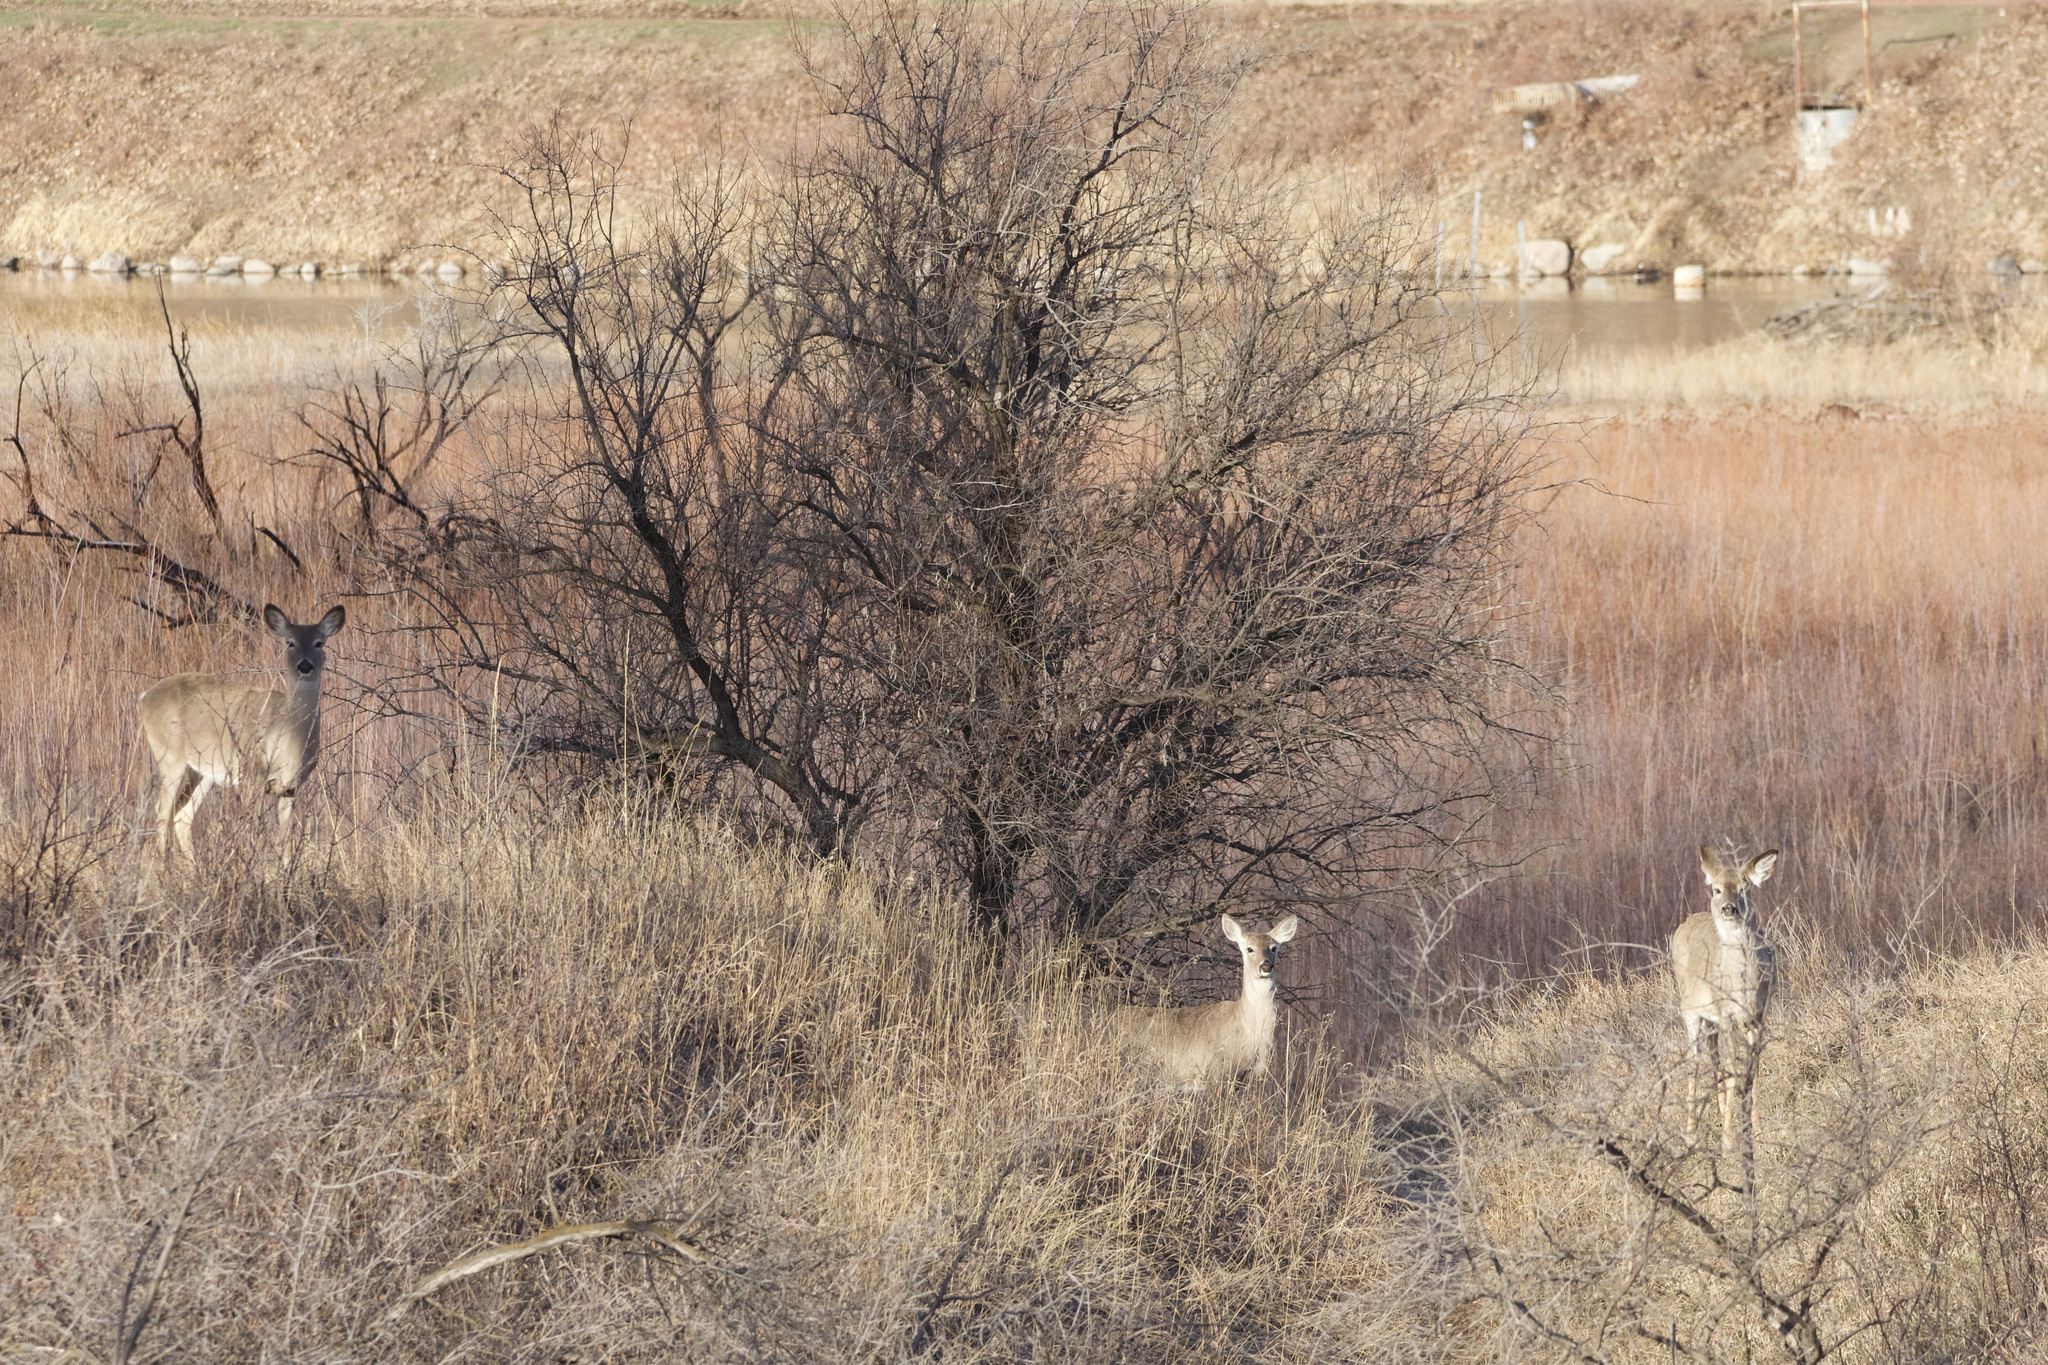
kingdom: Animalia
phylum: Chordata
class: Mammalia
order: Artiodactyla
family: Cervidae
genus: Odocoileus
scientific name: Odocoileus virginianus
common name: White-tailed deer
